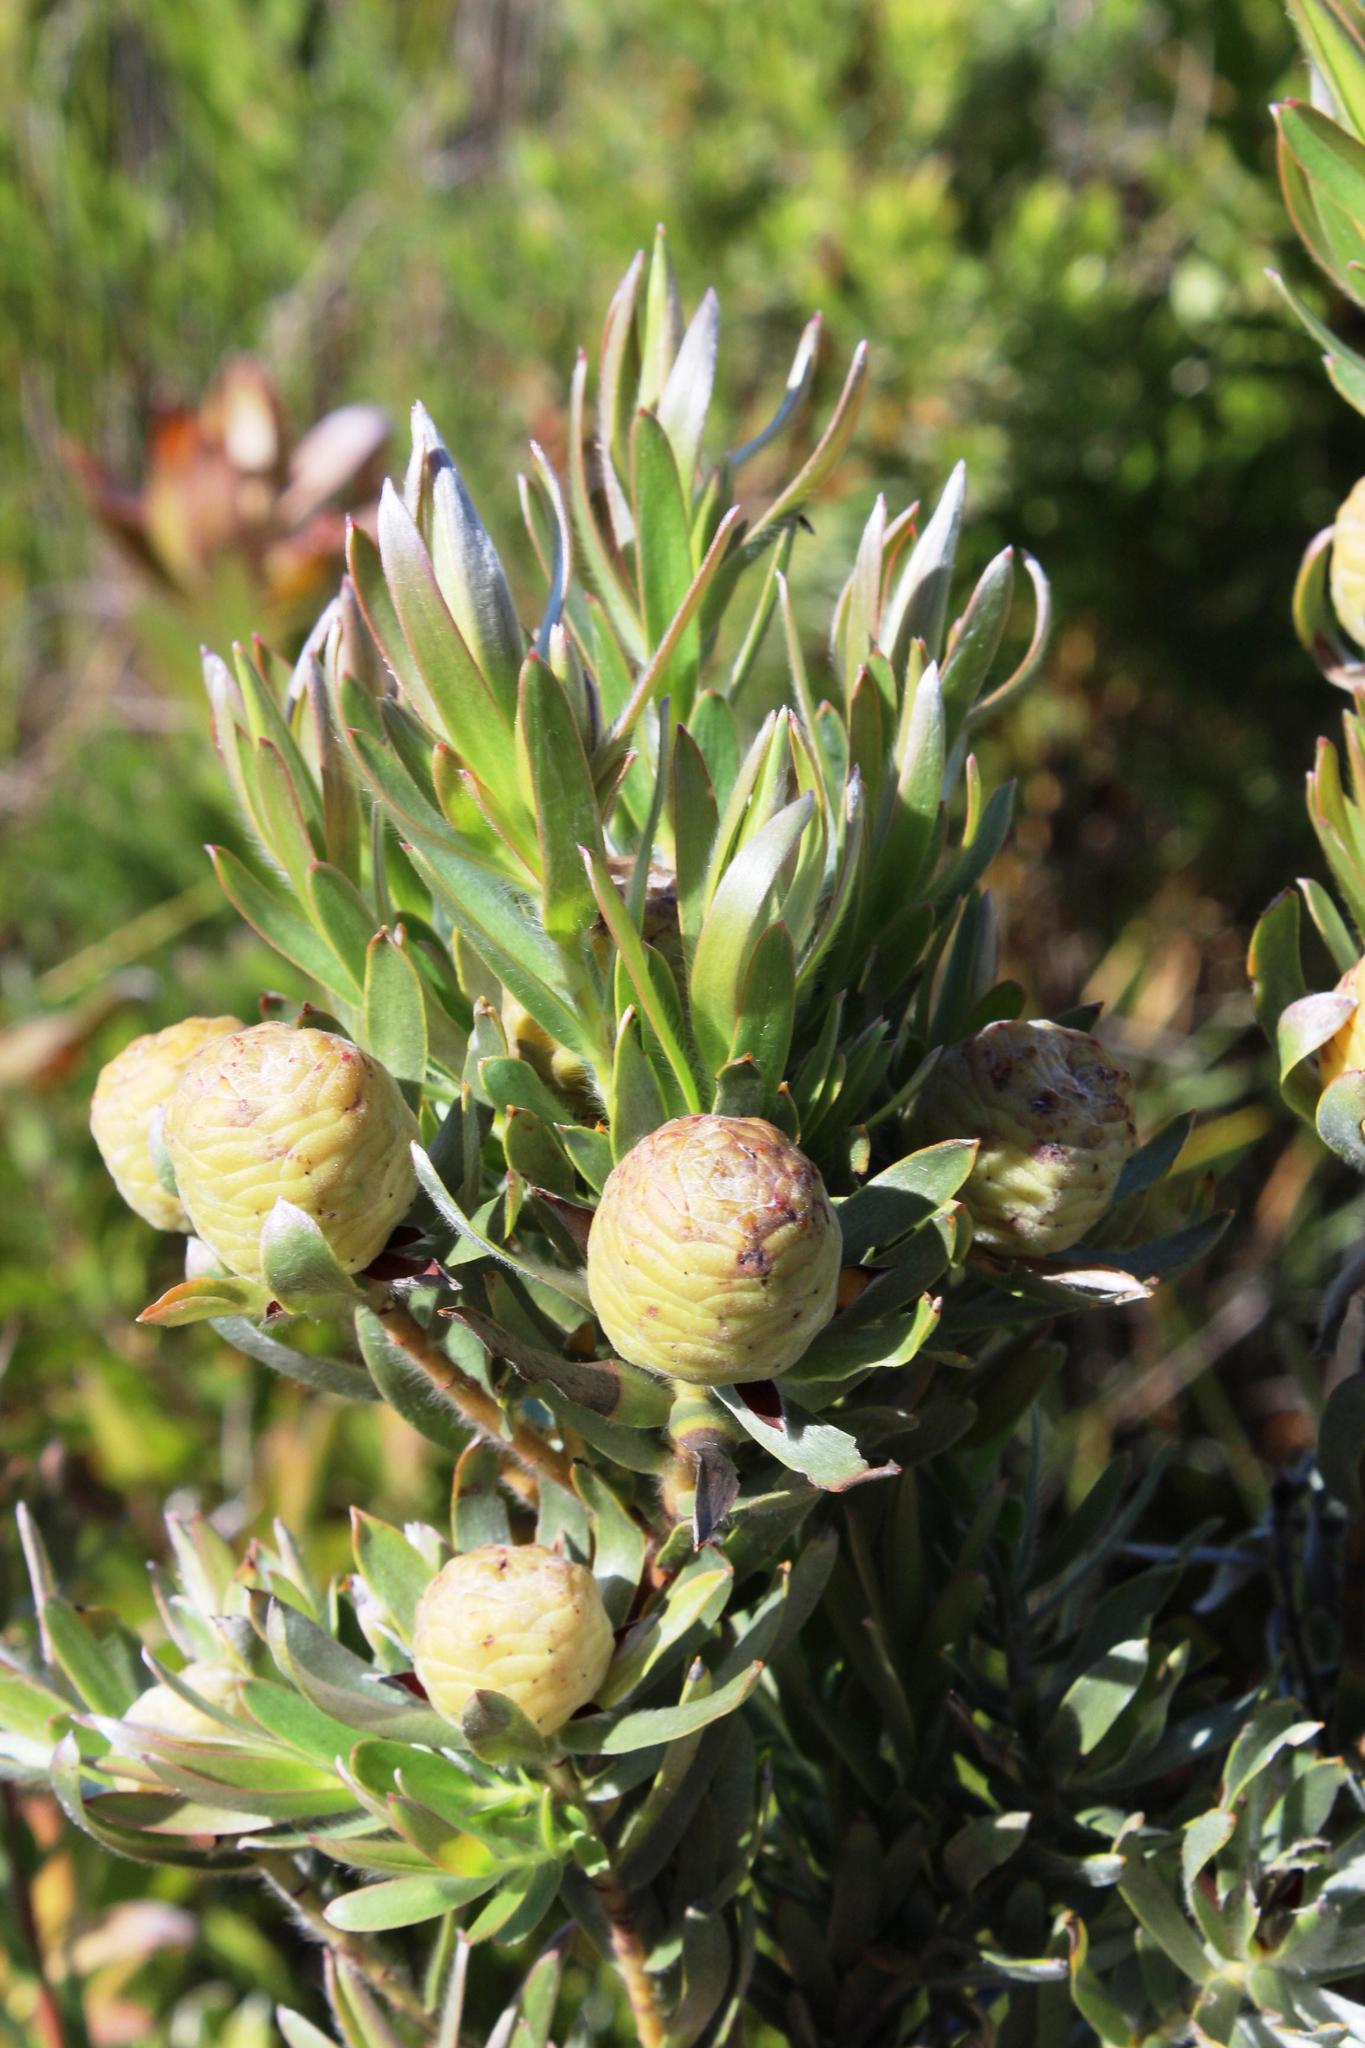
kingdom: Plantae
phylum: Tracheophyta
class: Magnoliopsida
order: Proteales
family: Proteaceae
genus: Leucadendron
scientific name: Leucadendron floridum
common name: Flats conebush
